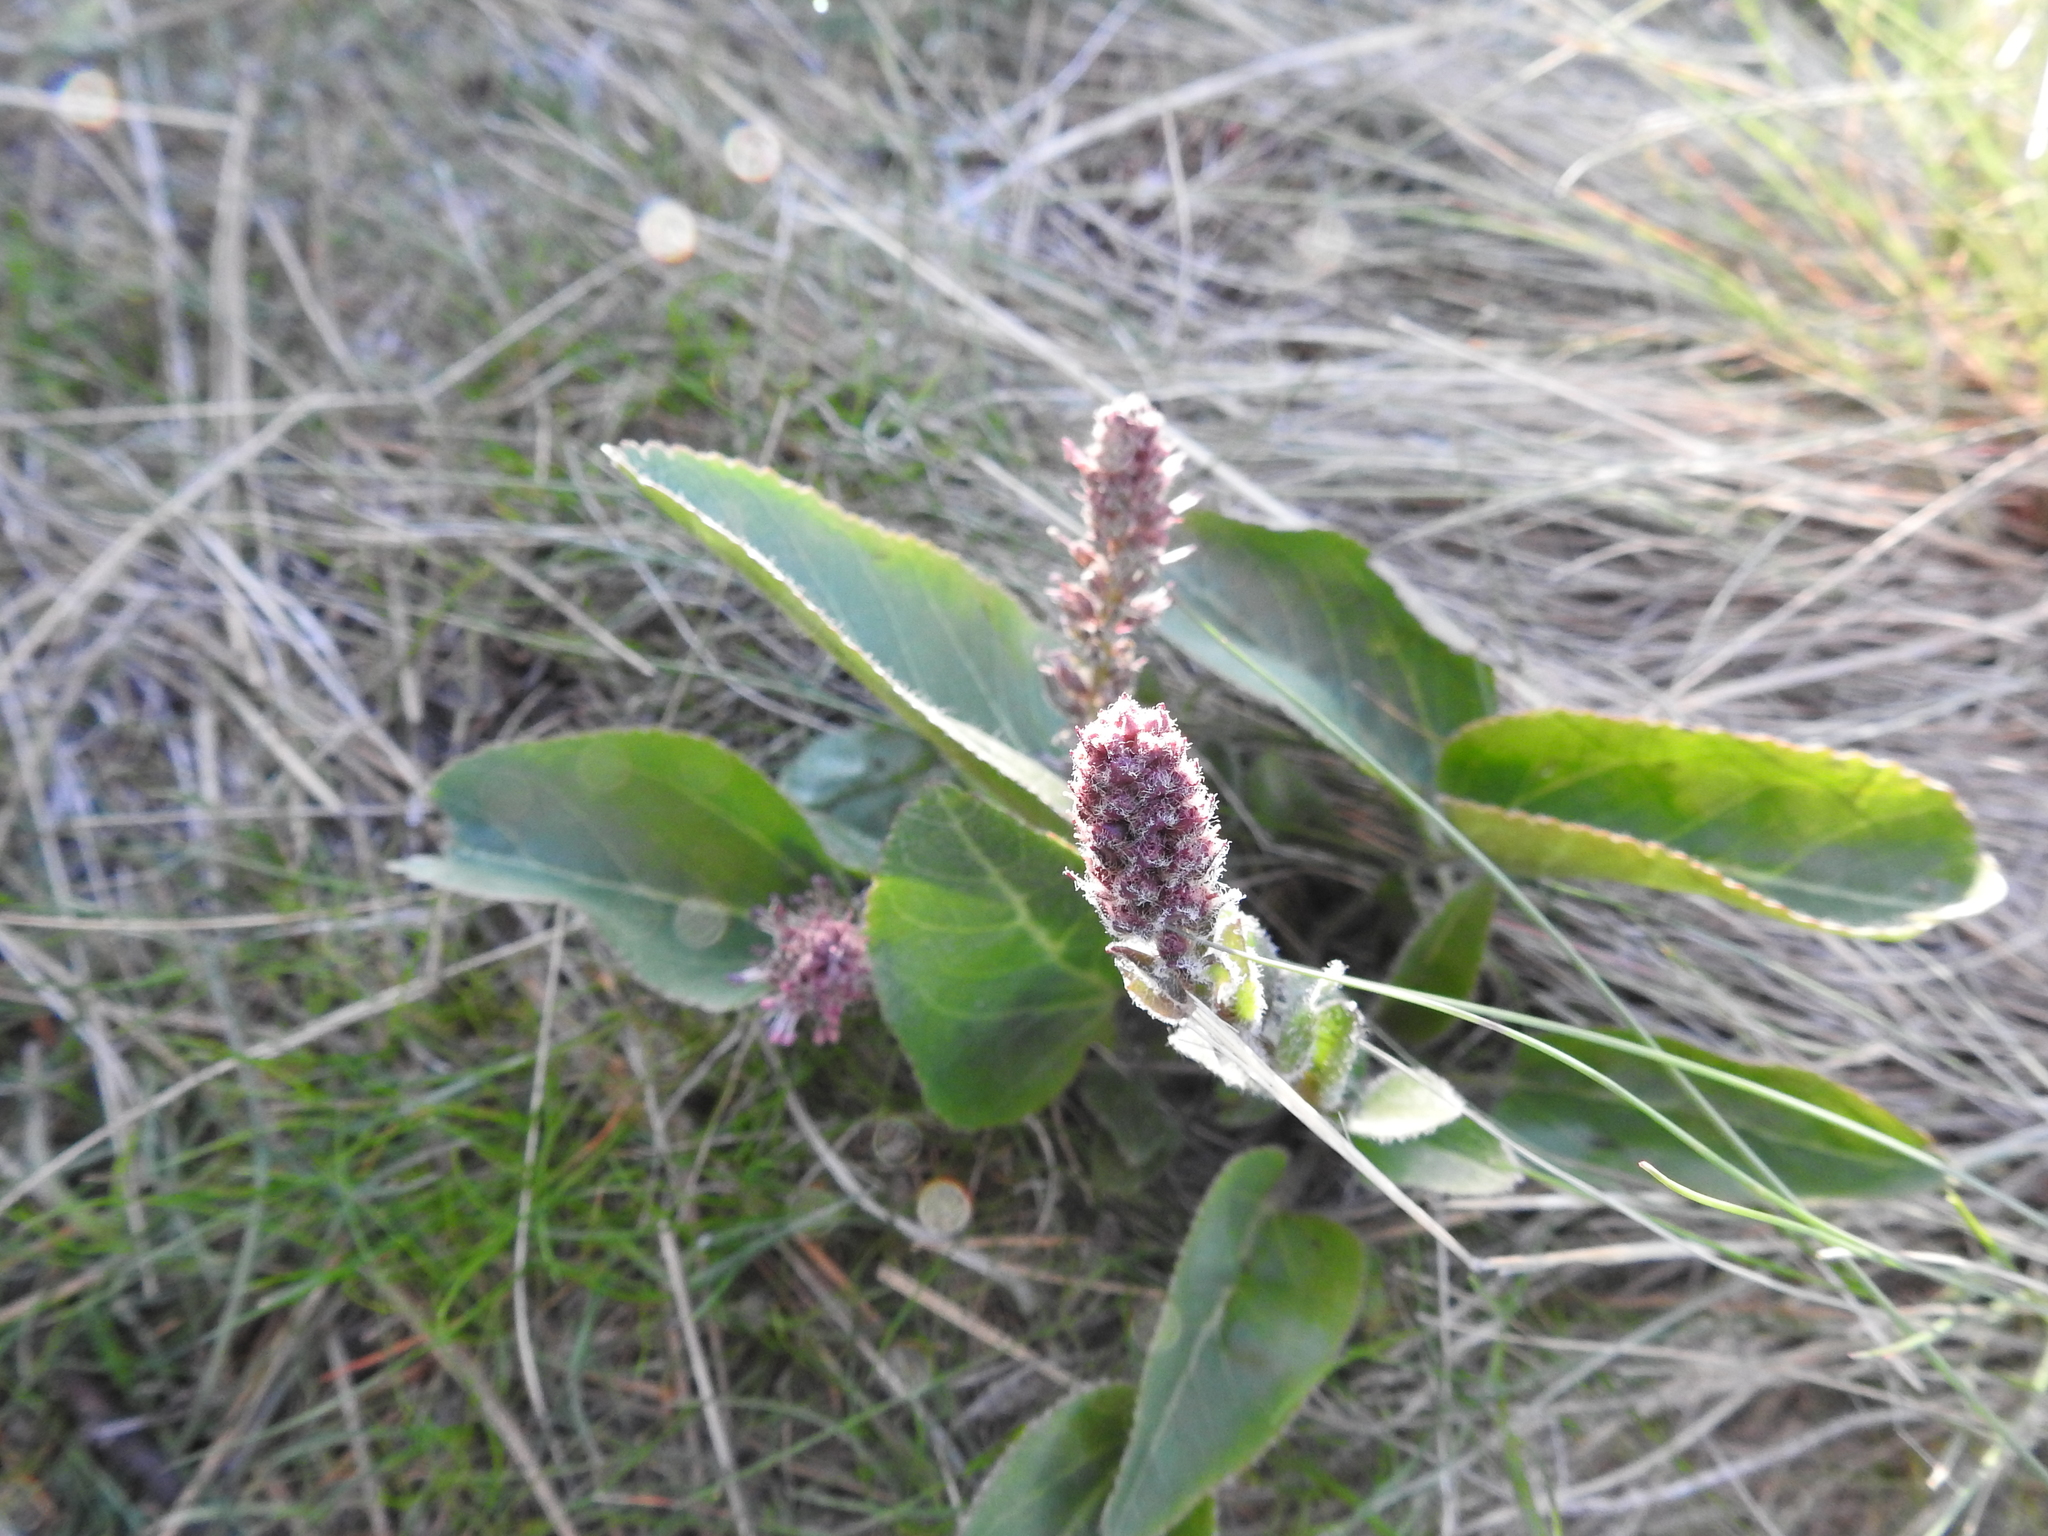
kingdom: Plantae
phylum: Tracheophyta
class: Magnoliopsida
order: Lamiales
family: Plantaginaceae
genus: Synthyris
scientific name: Synthyris rubra
